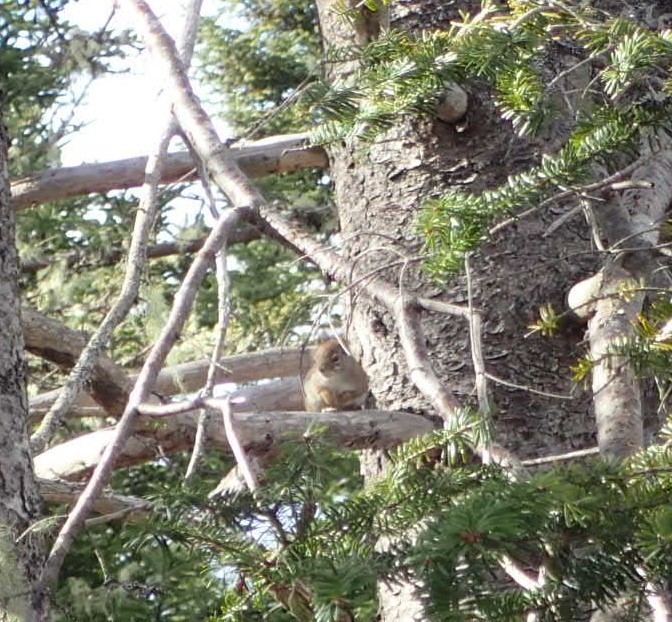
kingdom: Animalia
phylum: Chordata
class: Mammalia
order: Rodentia
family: Sciuridae
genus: Tamiasciurus
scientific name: Tamiasciurus hudsonicus
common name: Red squirrel
